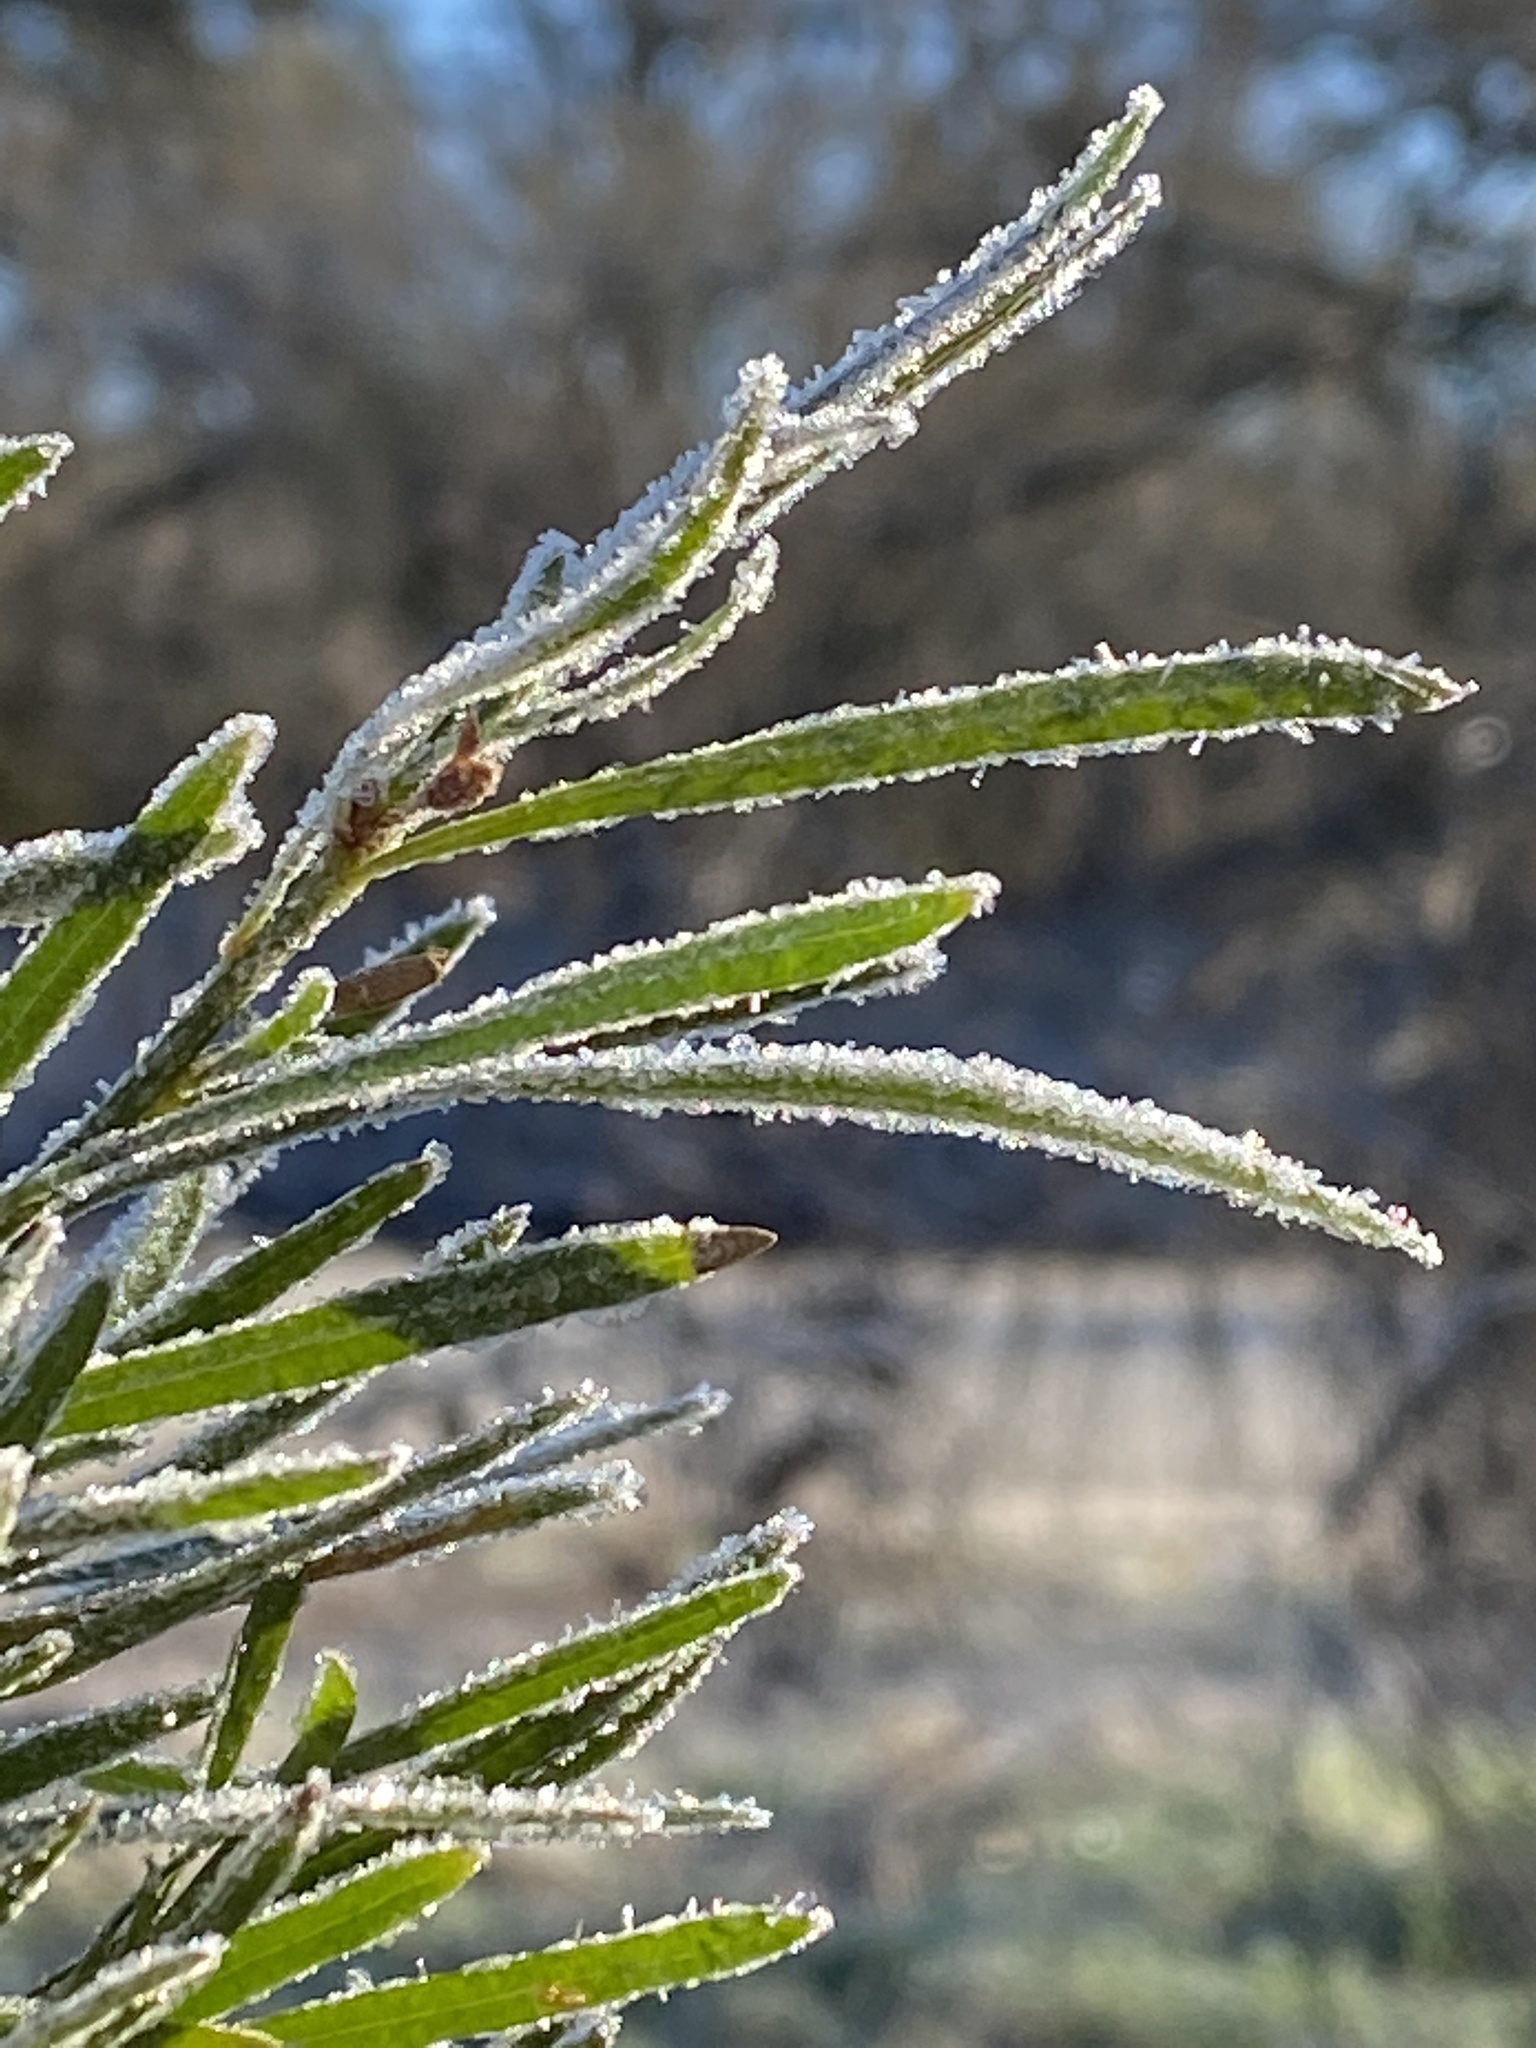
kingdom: Plantae
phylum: Tracheophyta
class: Magnoliopsida
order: Asterales
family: Asteraceae
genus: Baccharis
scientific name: Baccharis neglecta
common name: Roosevelt-weed
